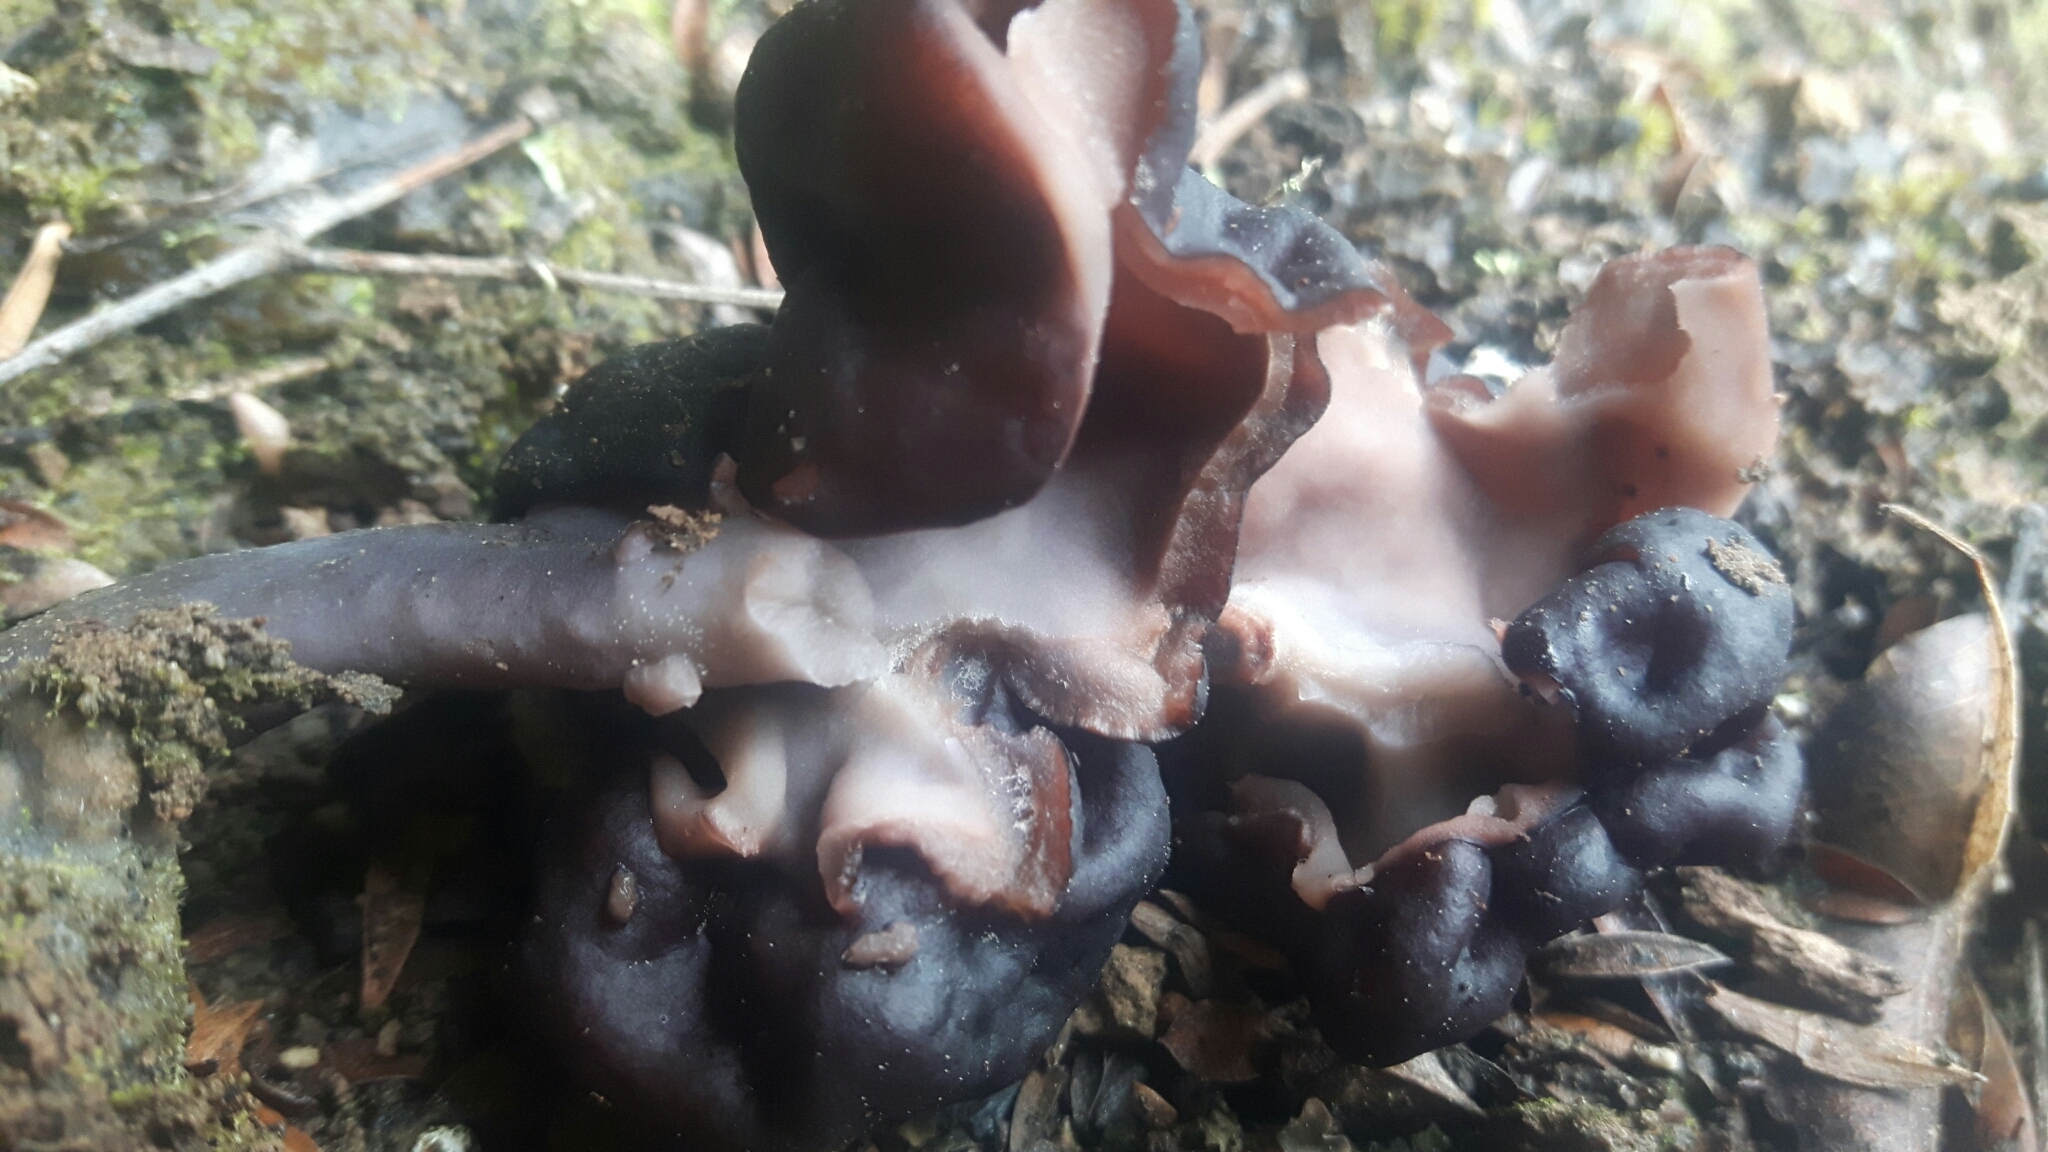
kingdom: Fungi
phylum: Ascomycota
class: Pezizomycetes
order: Pezizales
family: Discinaceae
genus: Gyromitra
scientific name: Gyromitra tasmanica
